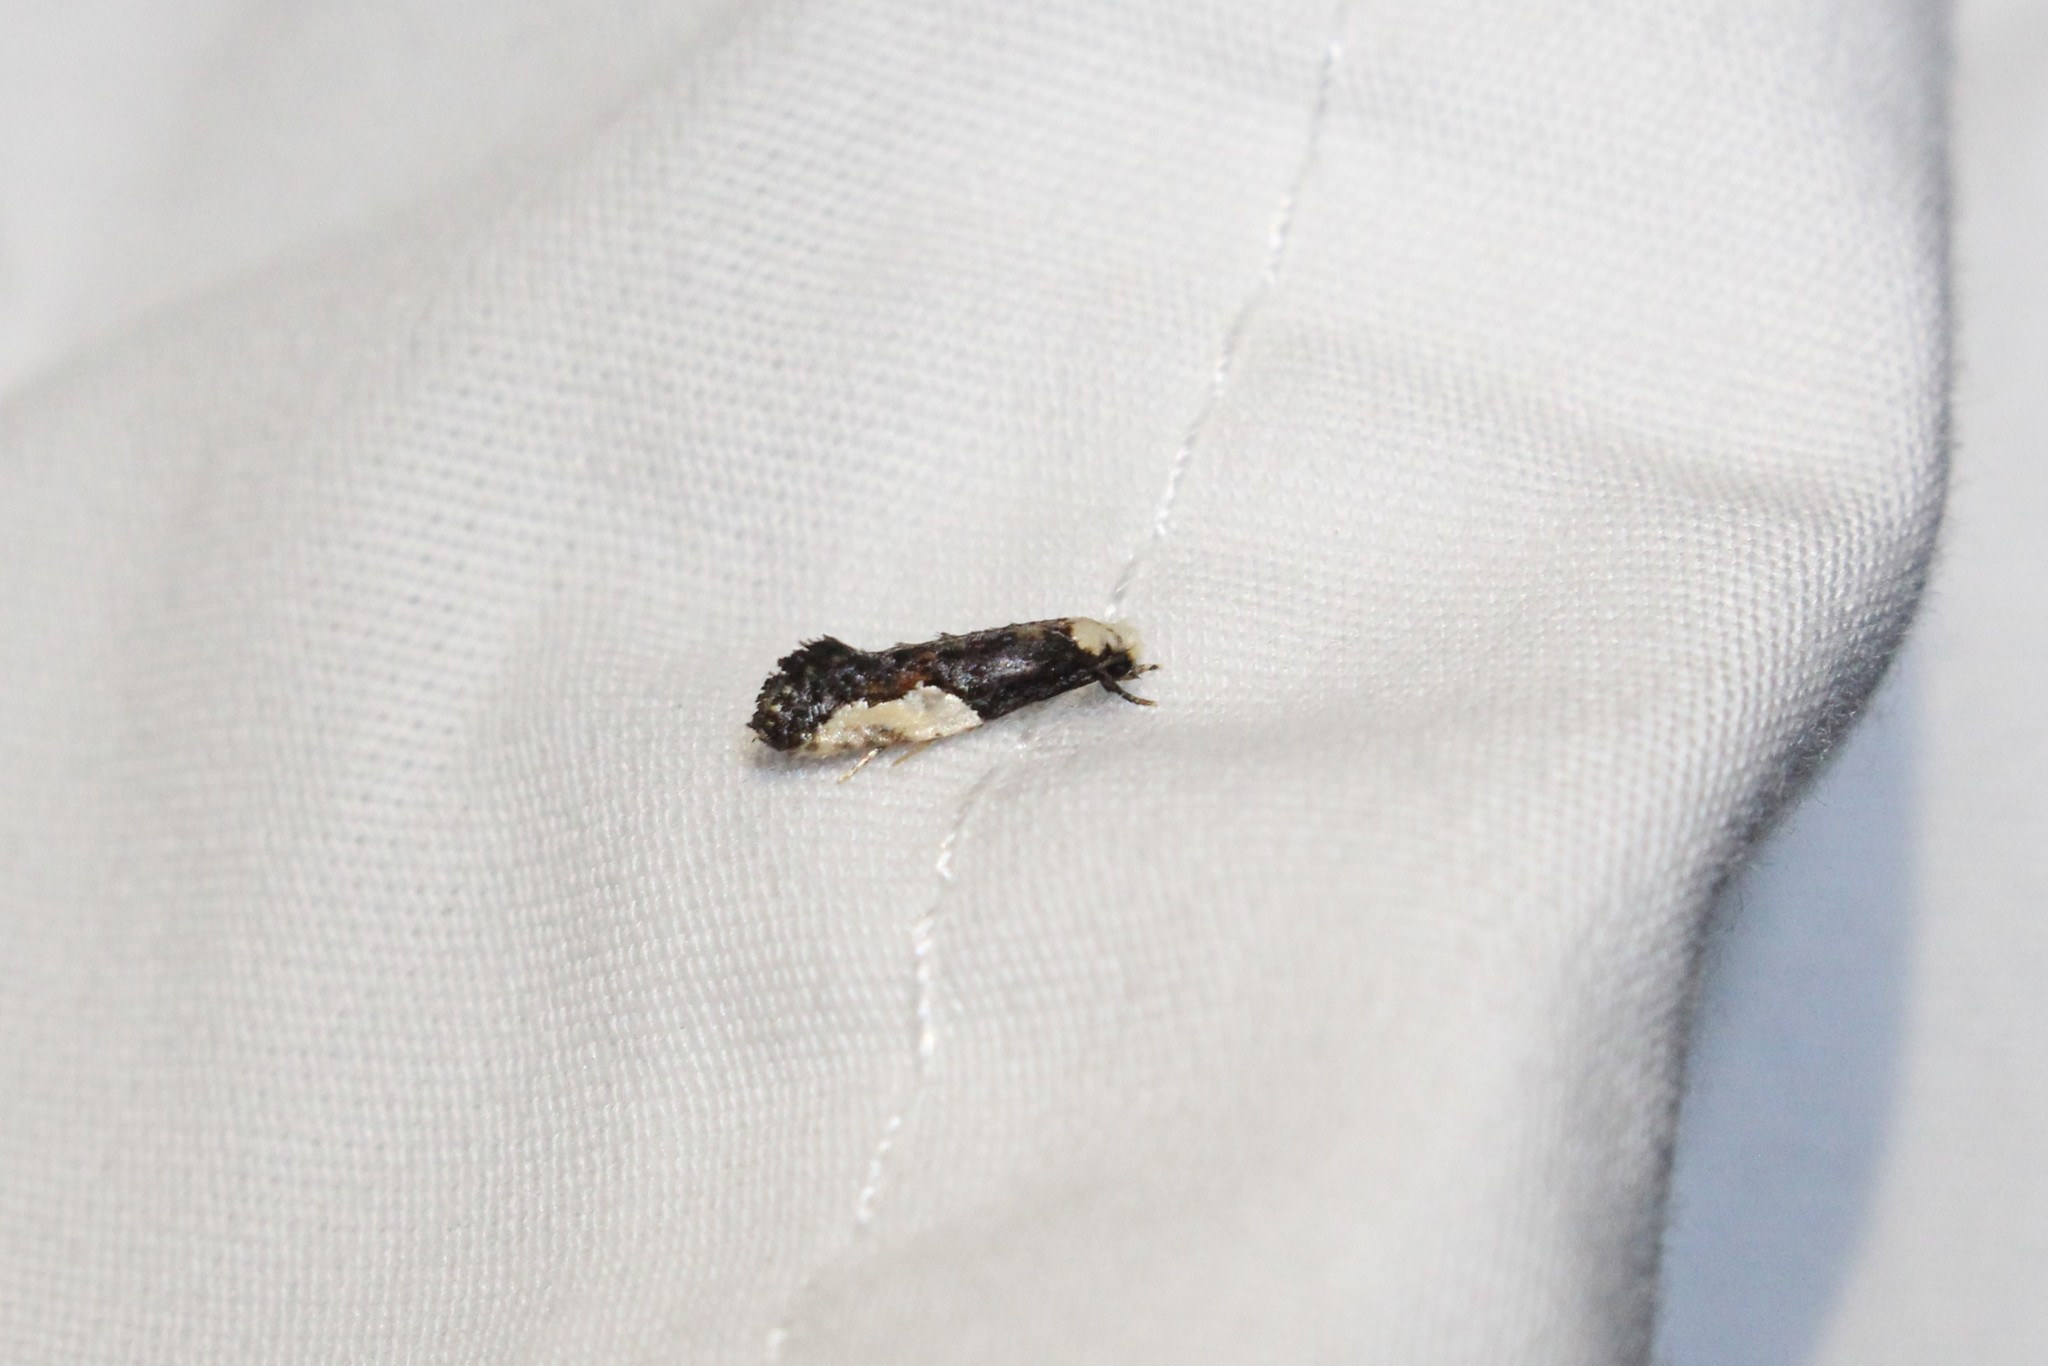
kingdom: Animalia
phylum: Arthropoda
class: Insecta
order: Lepidoptera
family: Tineidae
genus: Monopis
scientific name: Monopis longella
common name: Pavlovski's monopis moth
